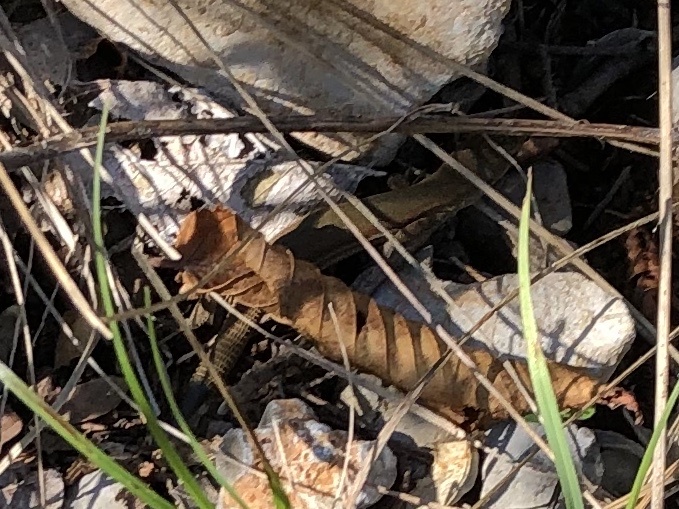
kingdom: Animalia
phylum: Chordata
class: Squamata
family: Lacertidae
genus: Podarcis
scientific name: Podarcis melisellensis
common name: Dalmatian wall lizard
